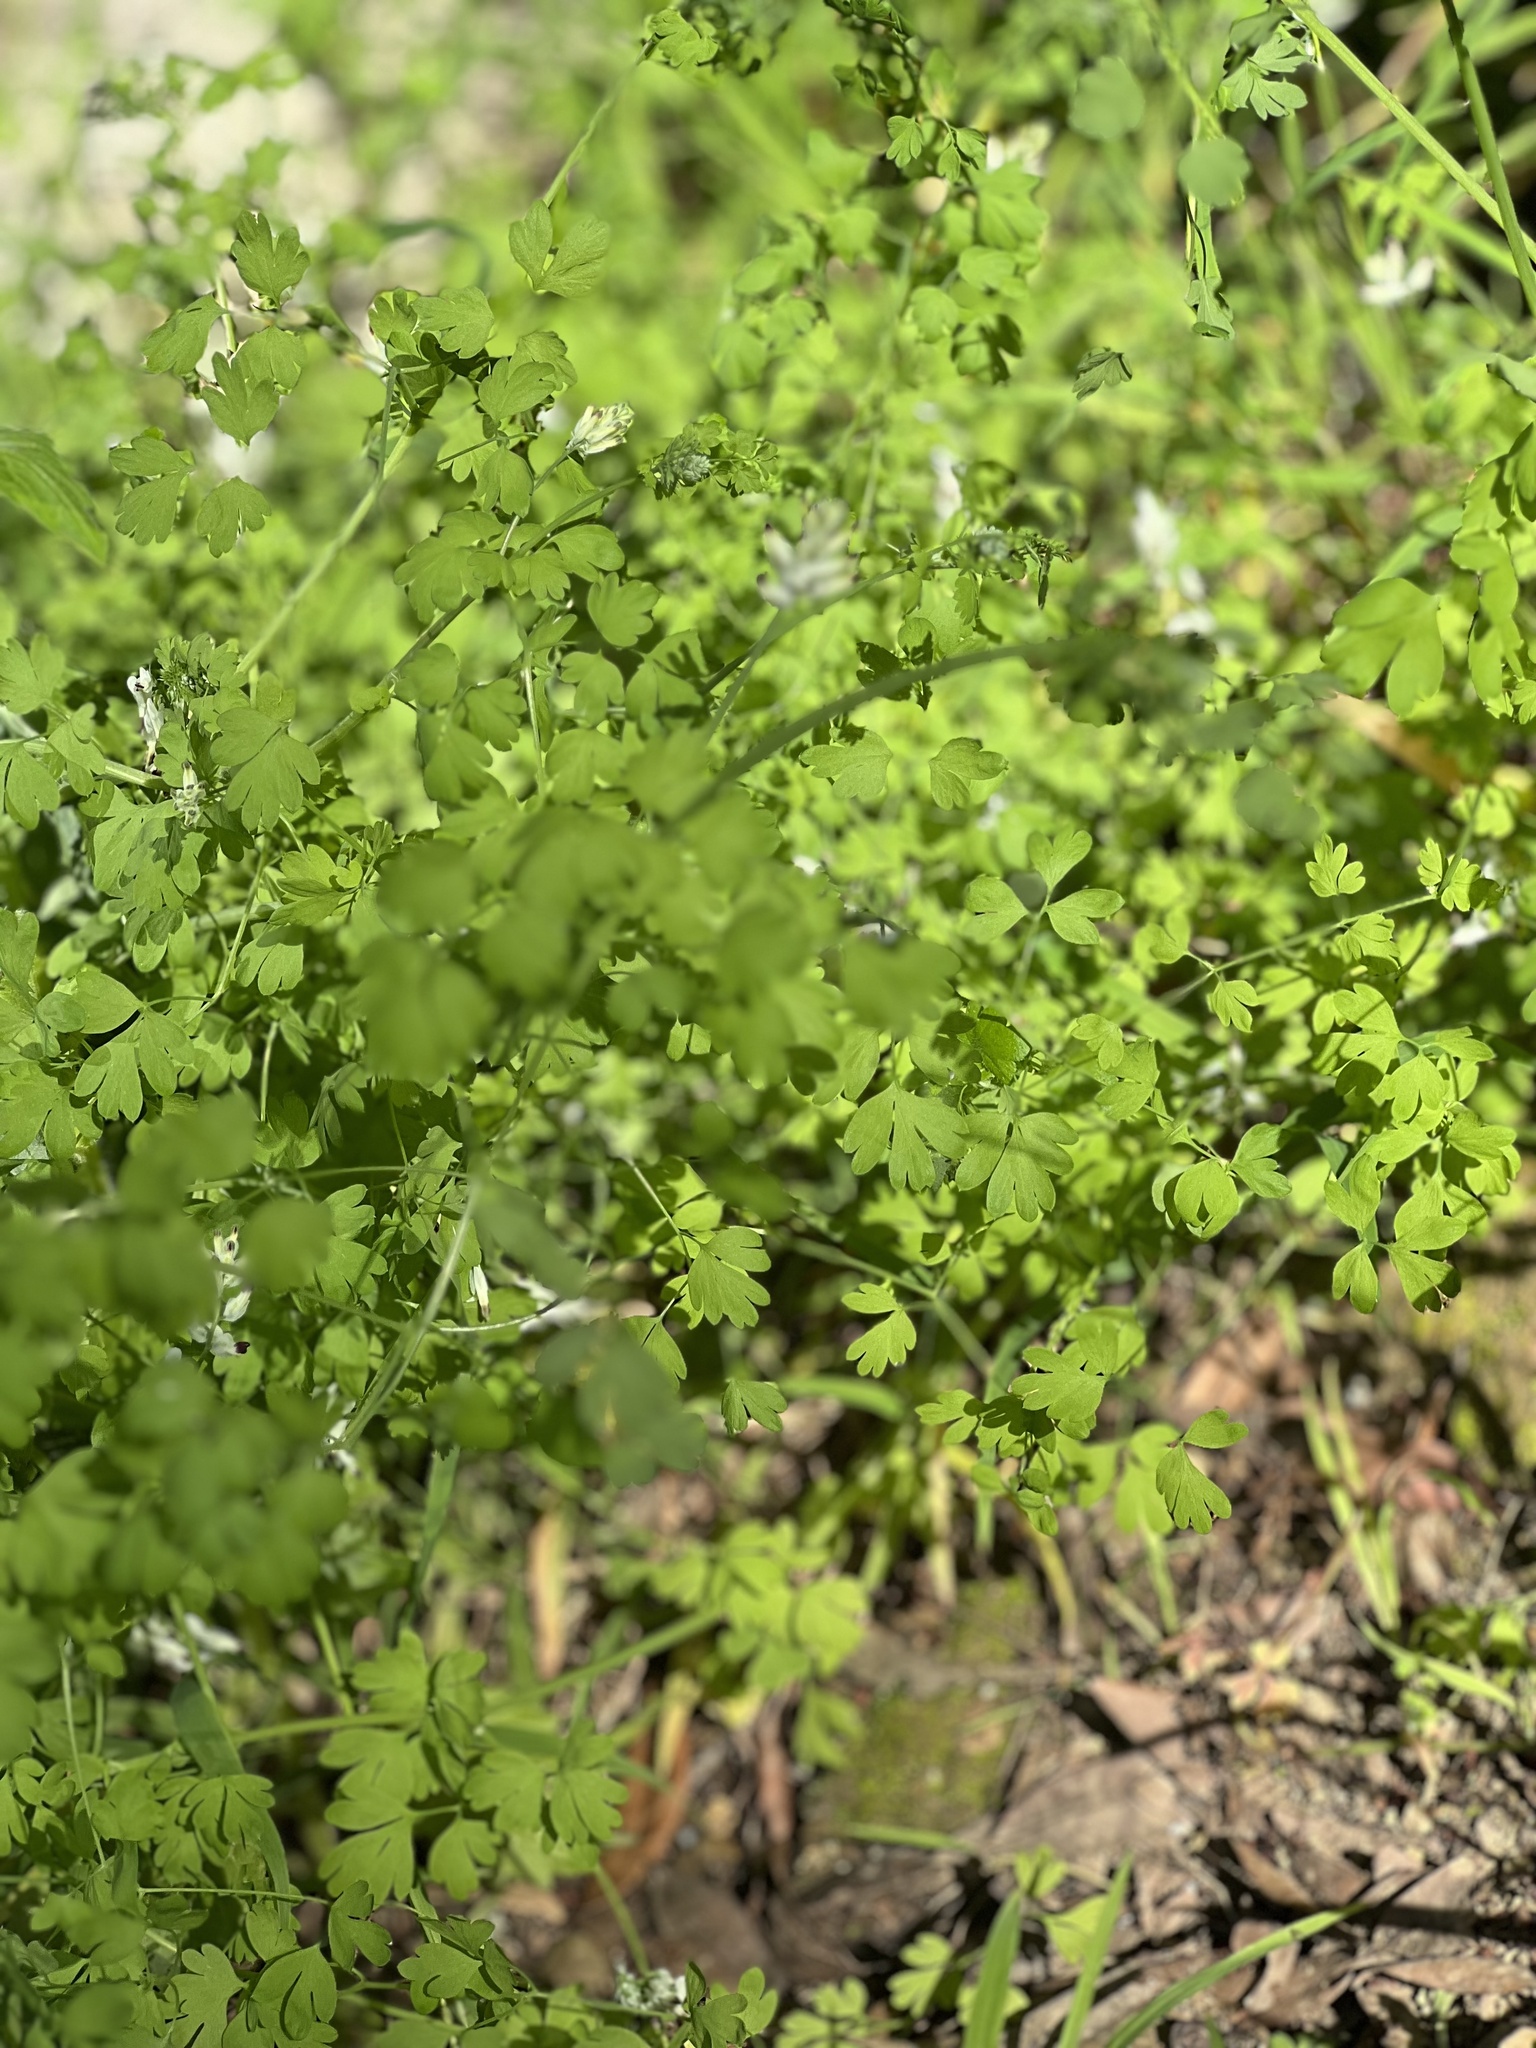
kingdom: Plantae
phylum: Tracheophyta
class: Magnoliopsida
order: Ranunculales
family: Papaveraceae
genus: Fumaria
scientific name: Fumaria
